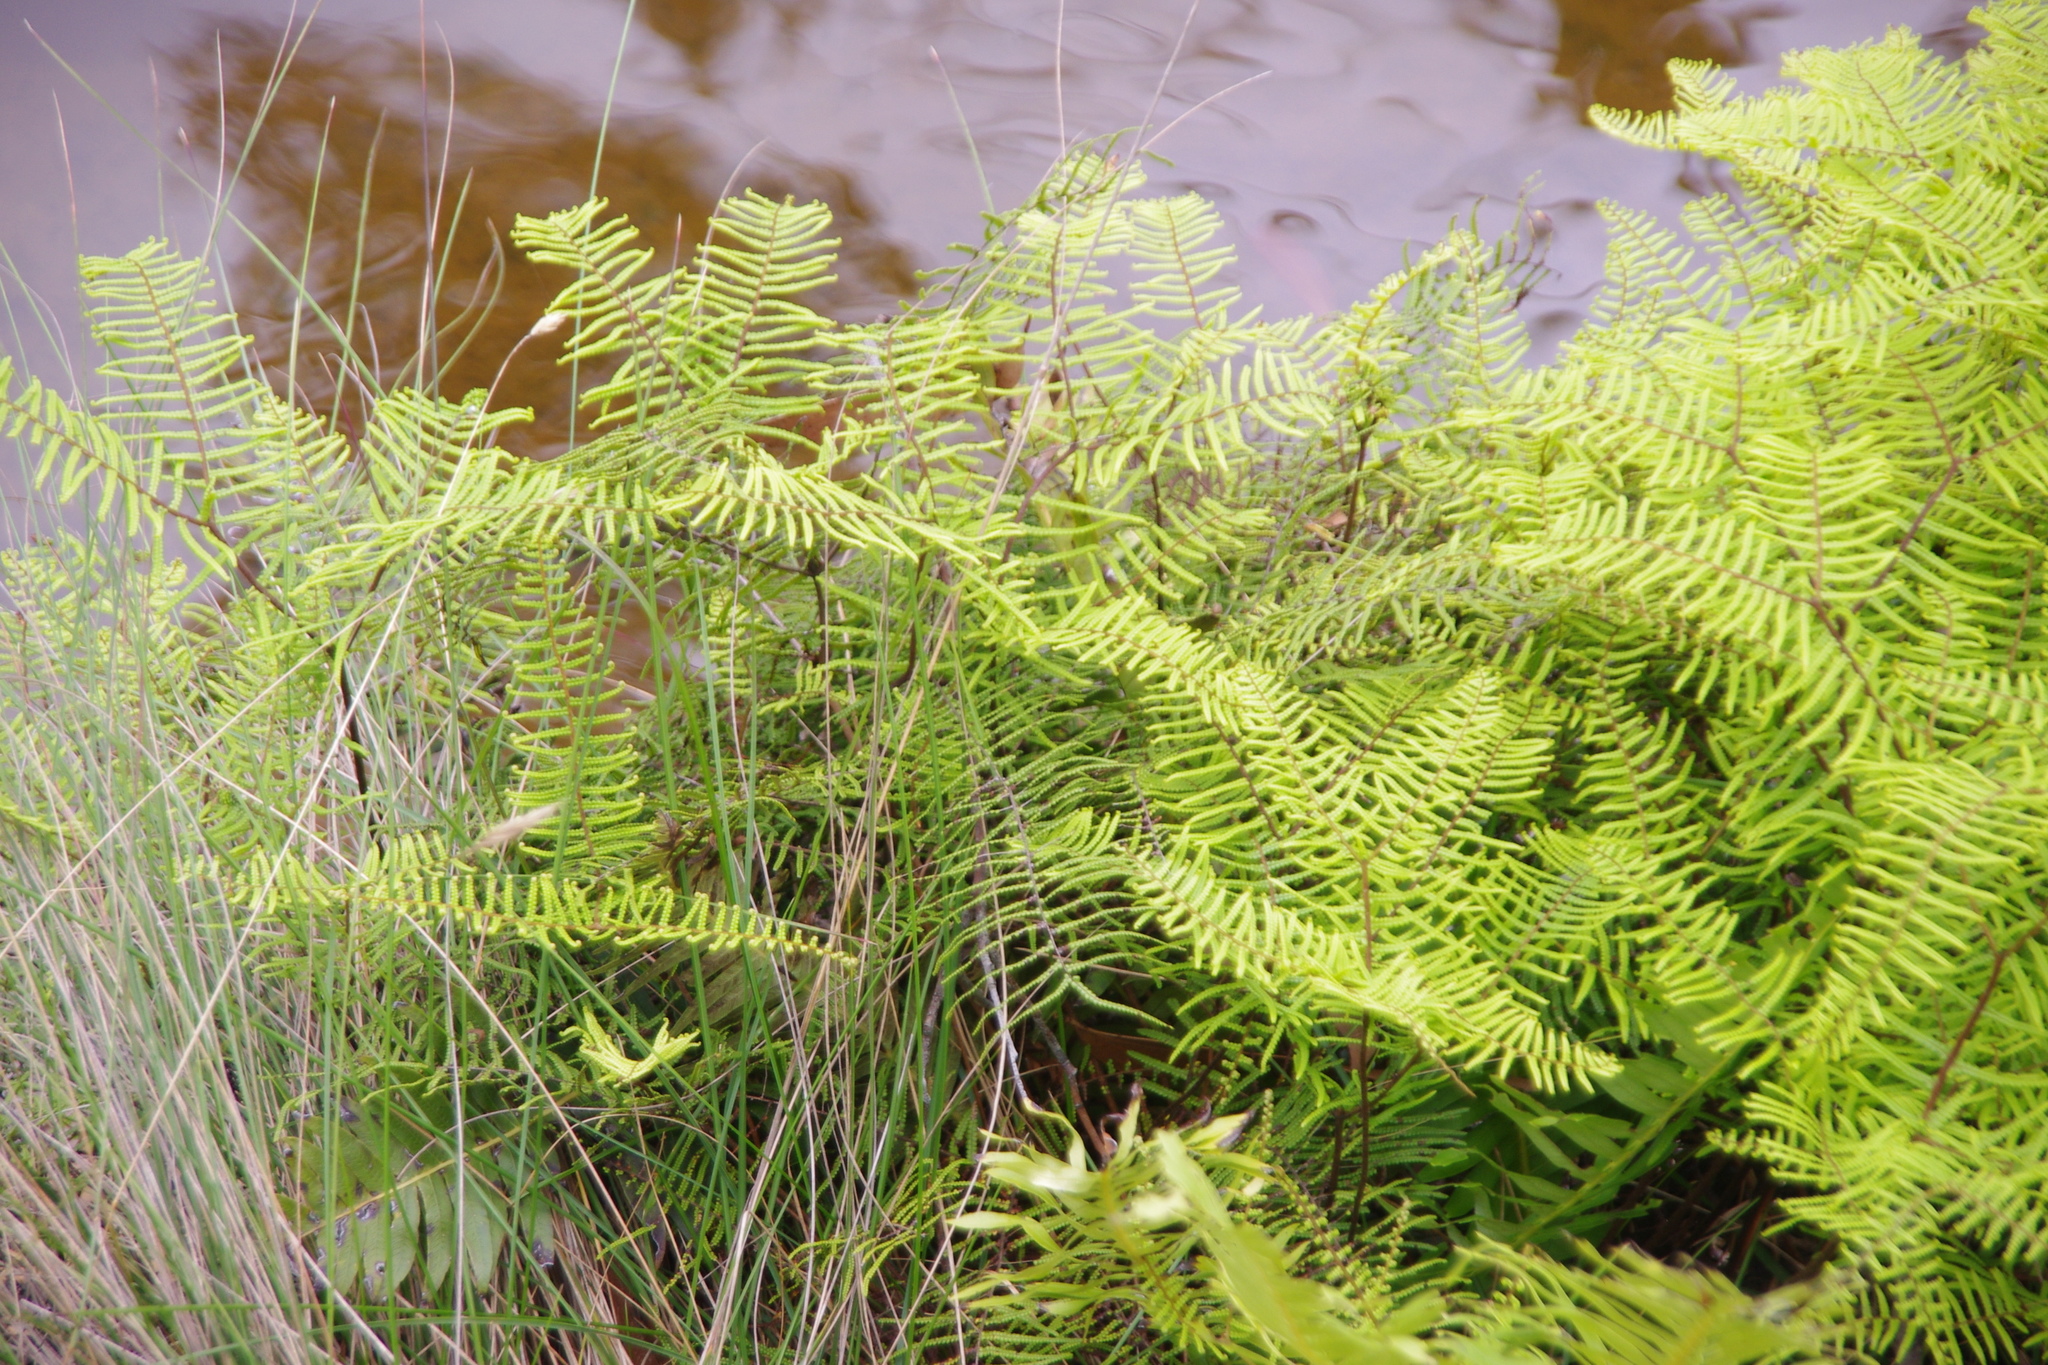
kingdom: Plantae
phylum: Tracheophyta
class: Polypodiopsida
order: Gleicheniales
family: Gleicheniaceae
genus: Gleichenia
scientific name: Gleichenia dicarpa
